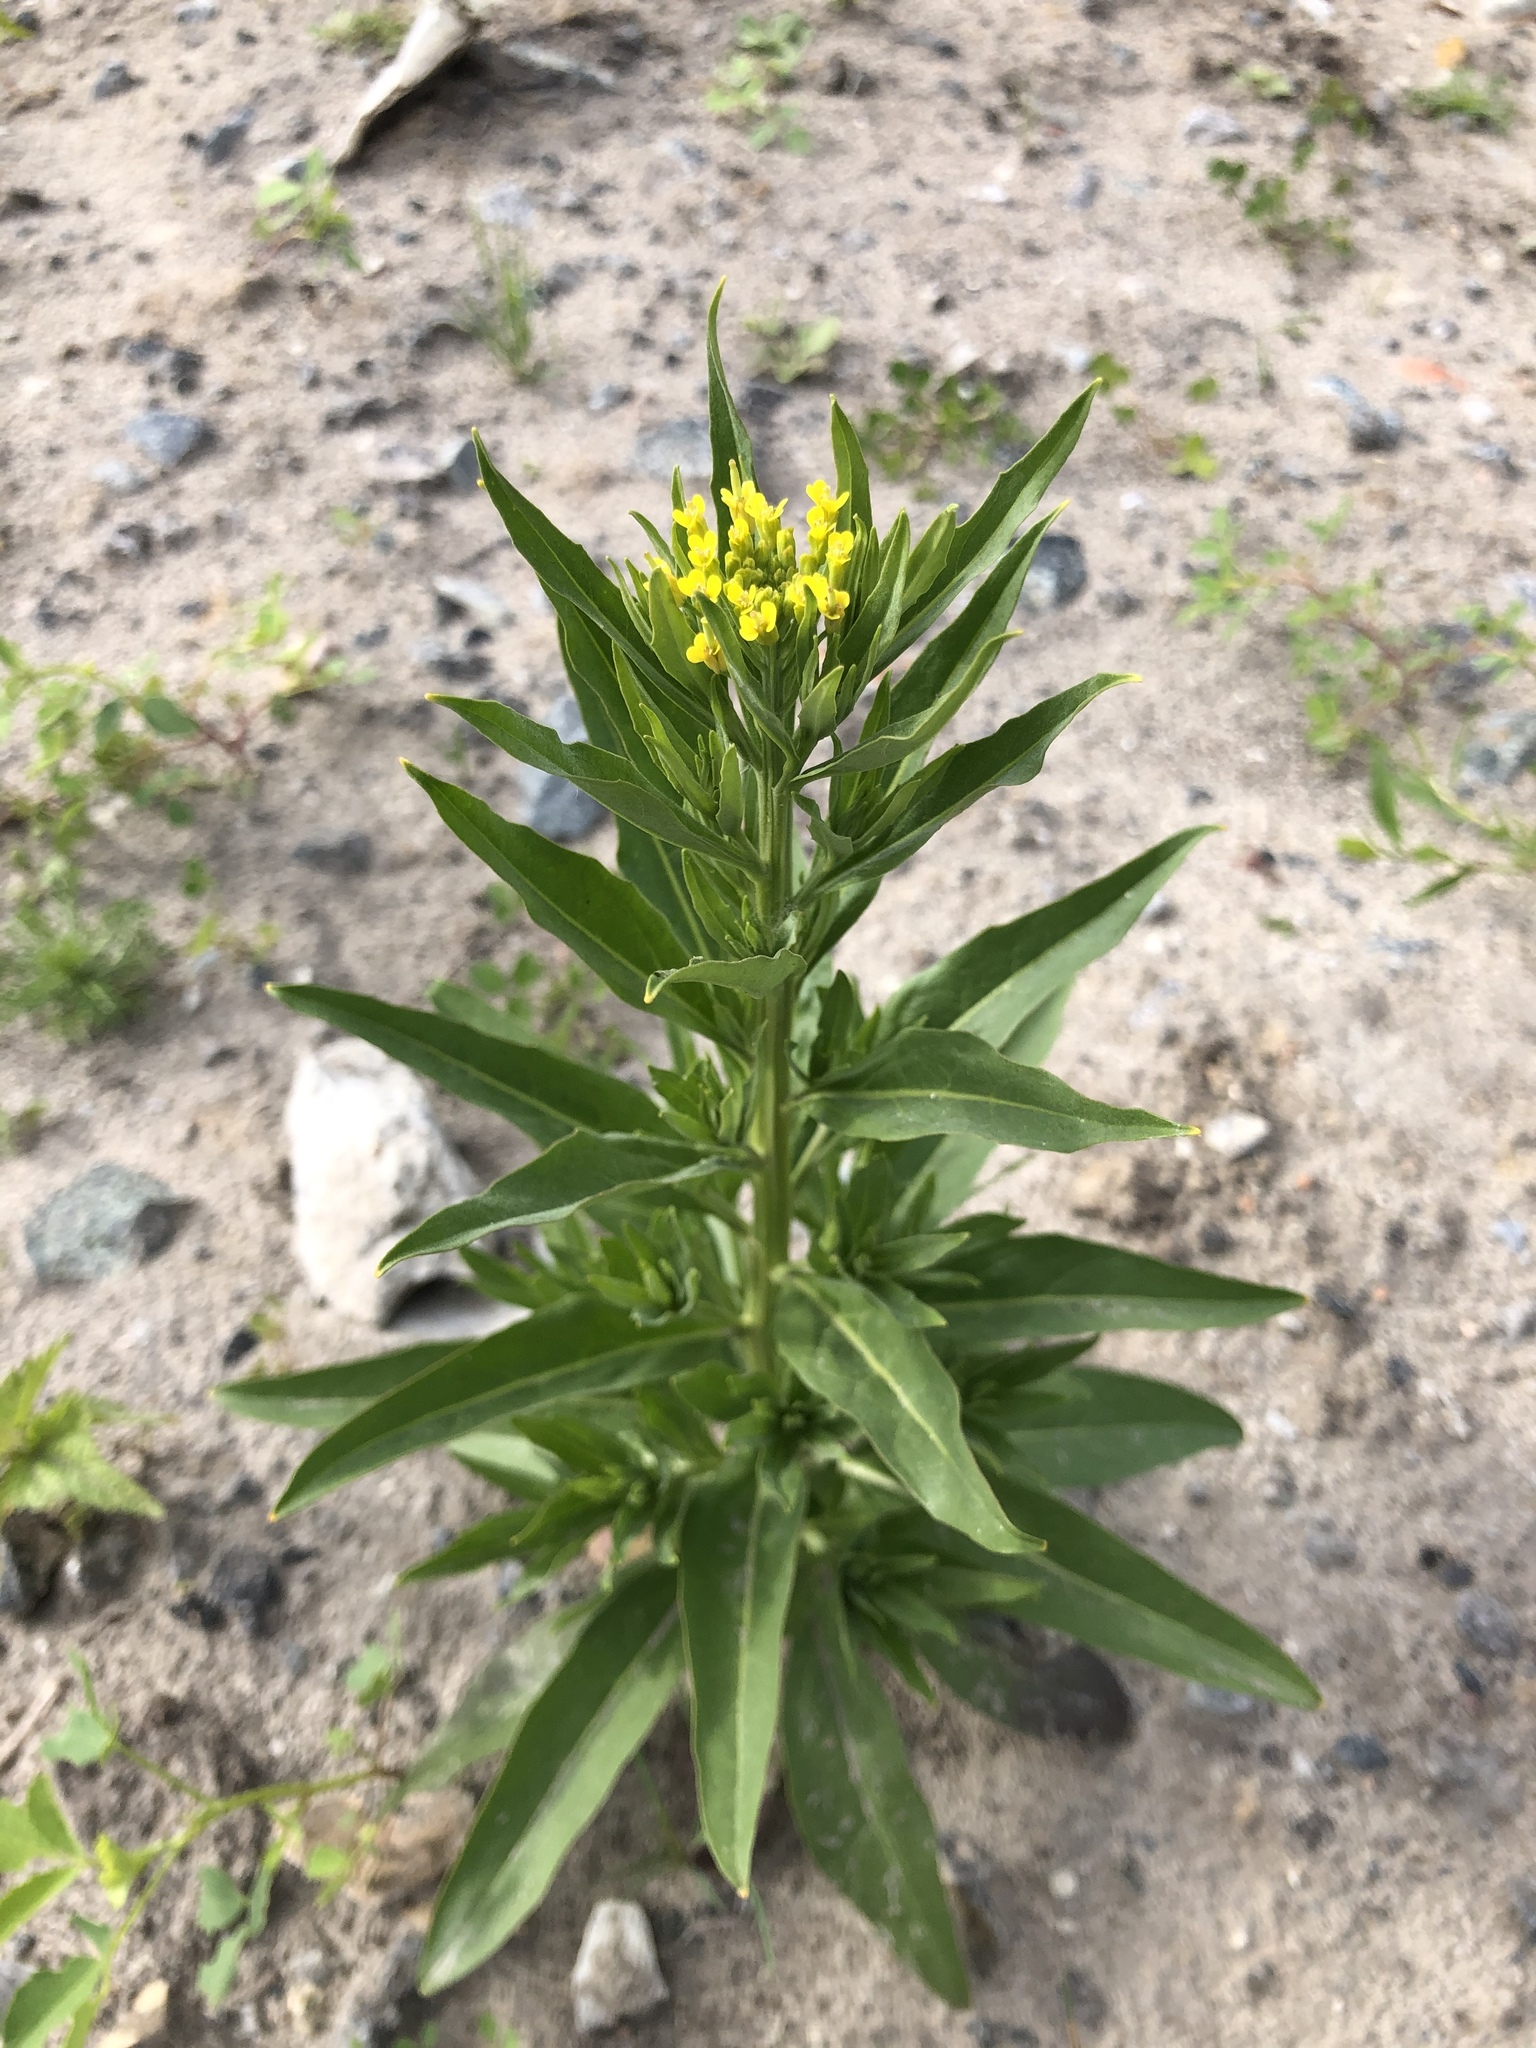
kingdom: Plantae
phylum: Tracheophyta
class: Magnoliopsida
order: Brassicales
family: Brassicaceae
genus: Erysimum
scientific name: Erysimum cheiranthoides
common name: Treacle mustard
